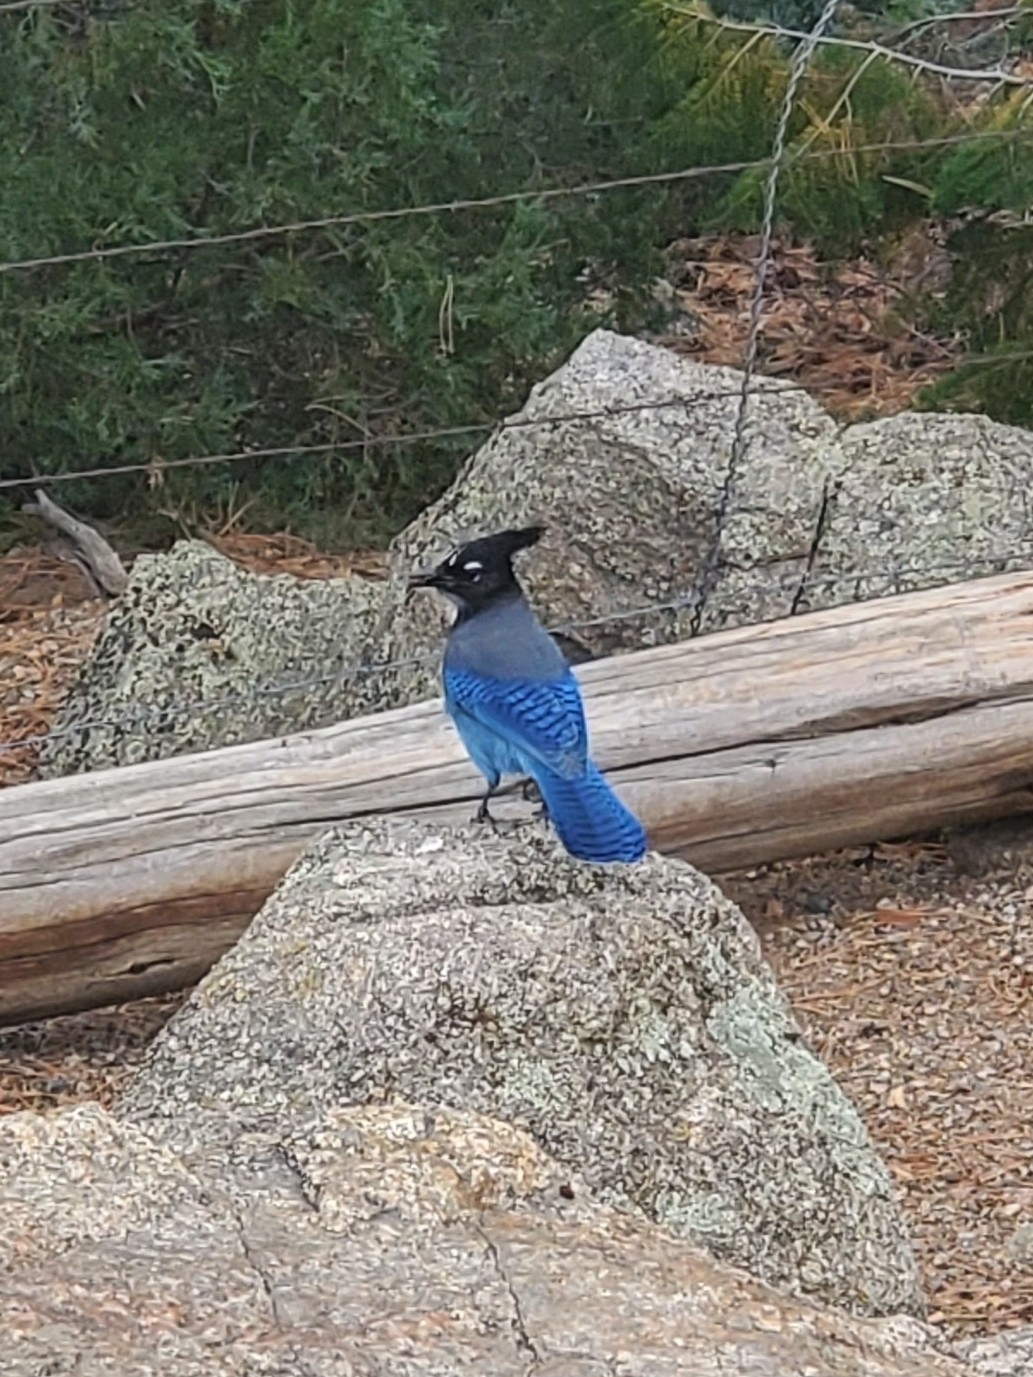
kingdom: Animalia
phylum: Chordata
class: Aves
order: Passeriformes
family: Corvidae
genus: Cyanocitta
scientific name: Cyanocitta stelleri
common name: Steller's jay
